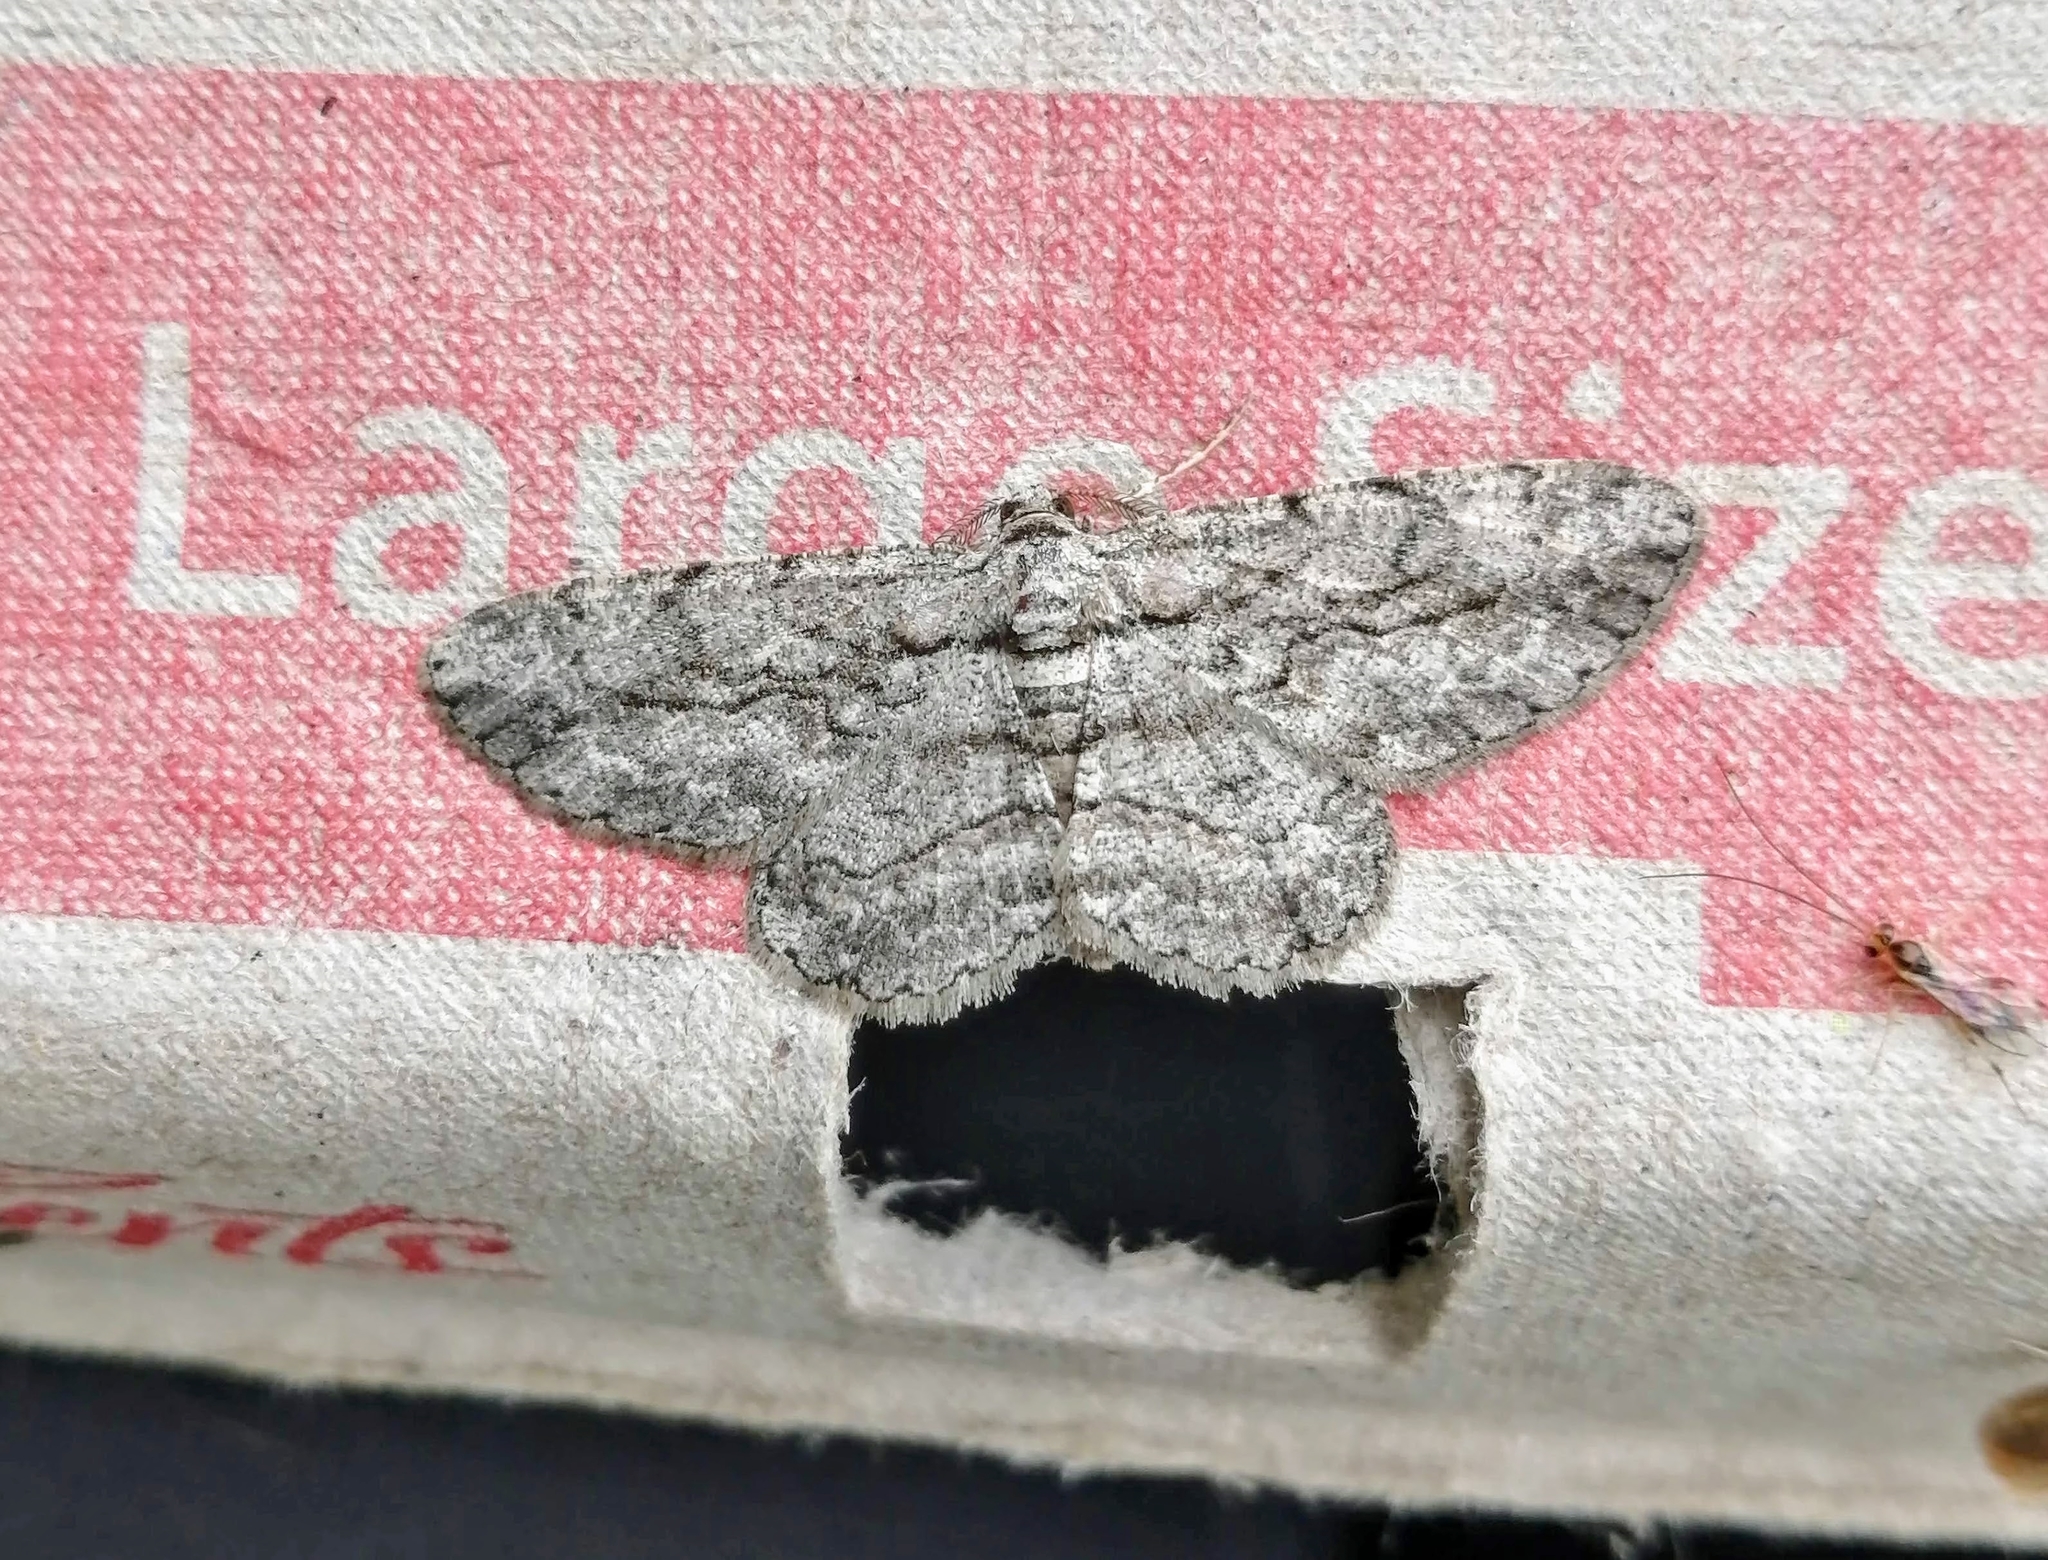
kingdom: Animalia
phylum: Arthropoda
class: Insecta
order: Lepidoptera
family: Geometridae
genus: Anavitrinella
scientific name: Anavitrinella pampinaria
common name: Common gray
